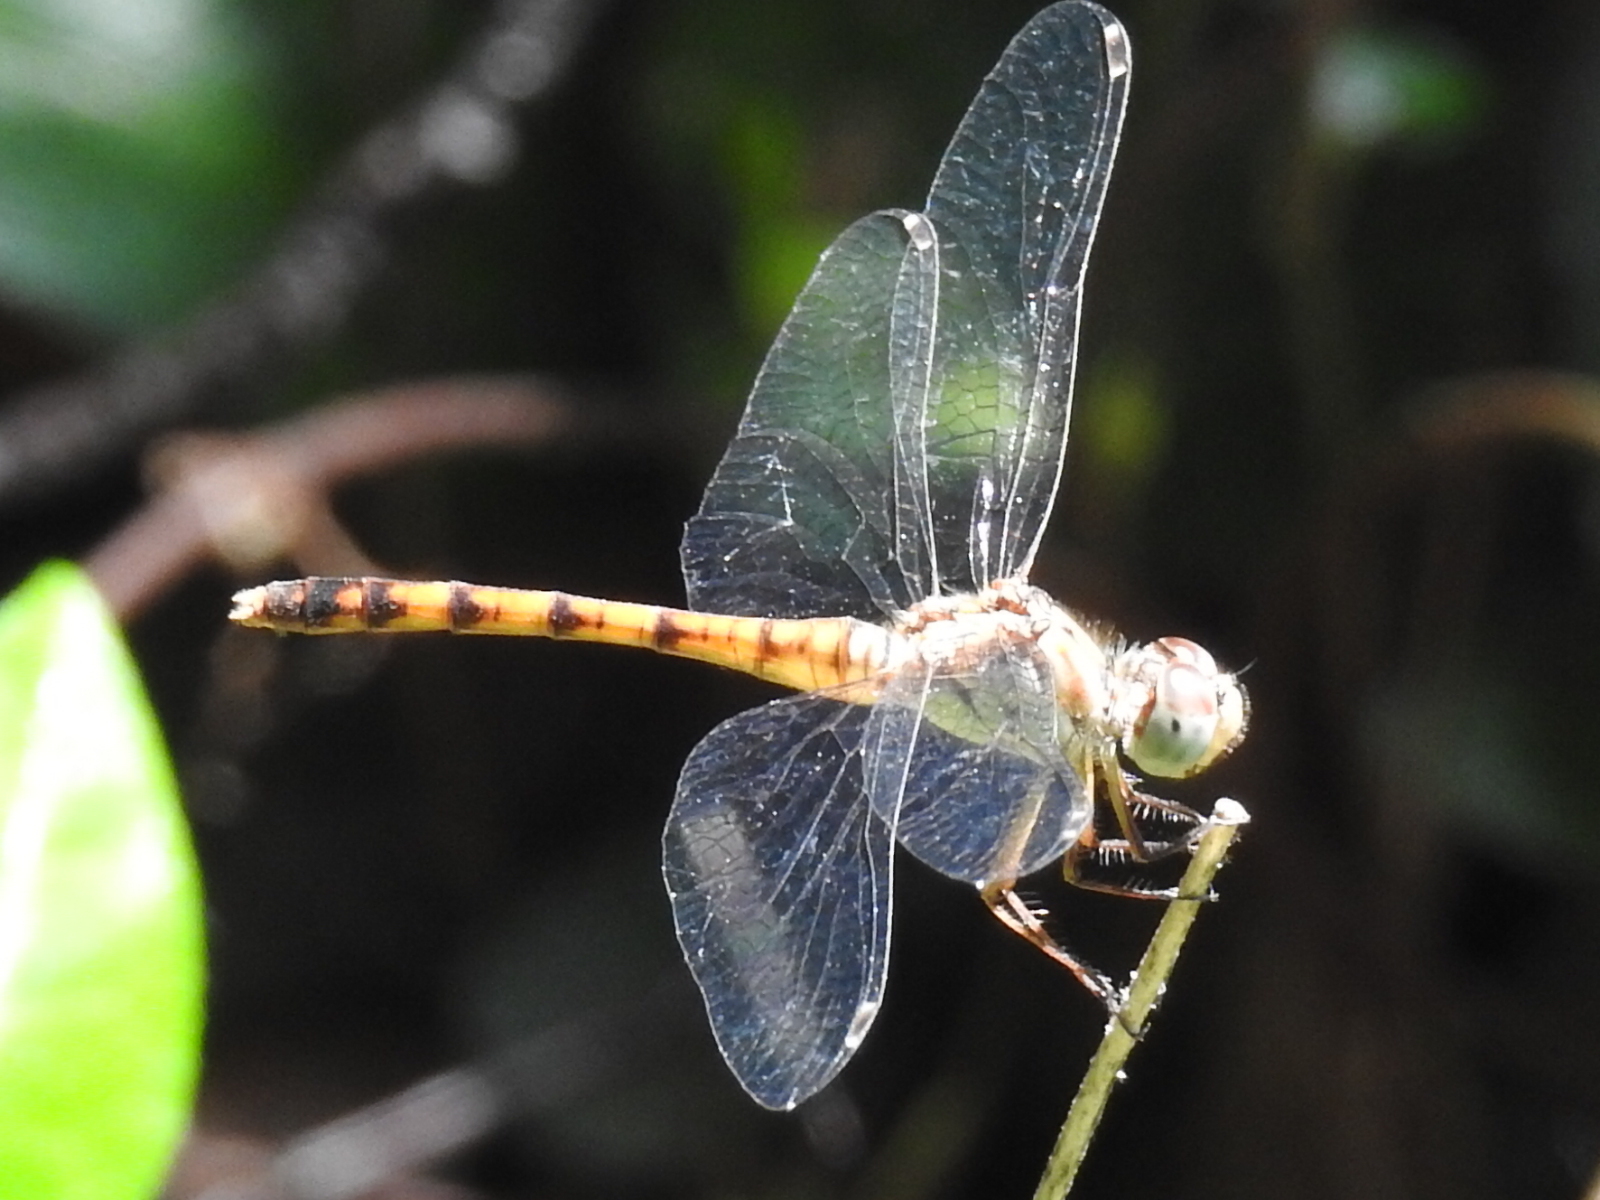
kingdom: Animalia
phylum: Arthropoda
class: Insecta
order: Odonata
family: Libellulidae
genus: Sympetrum
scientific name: Sympetrum ambiguum
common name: Blue-faced meadowhawk
